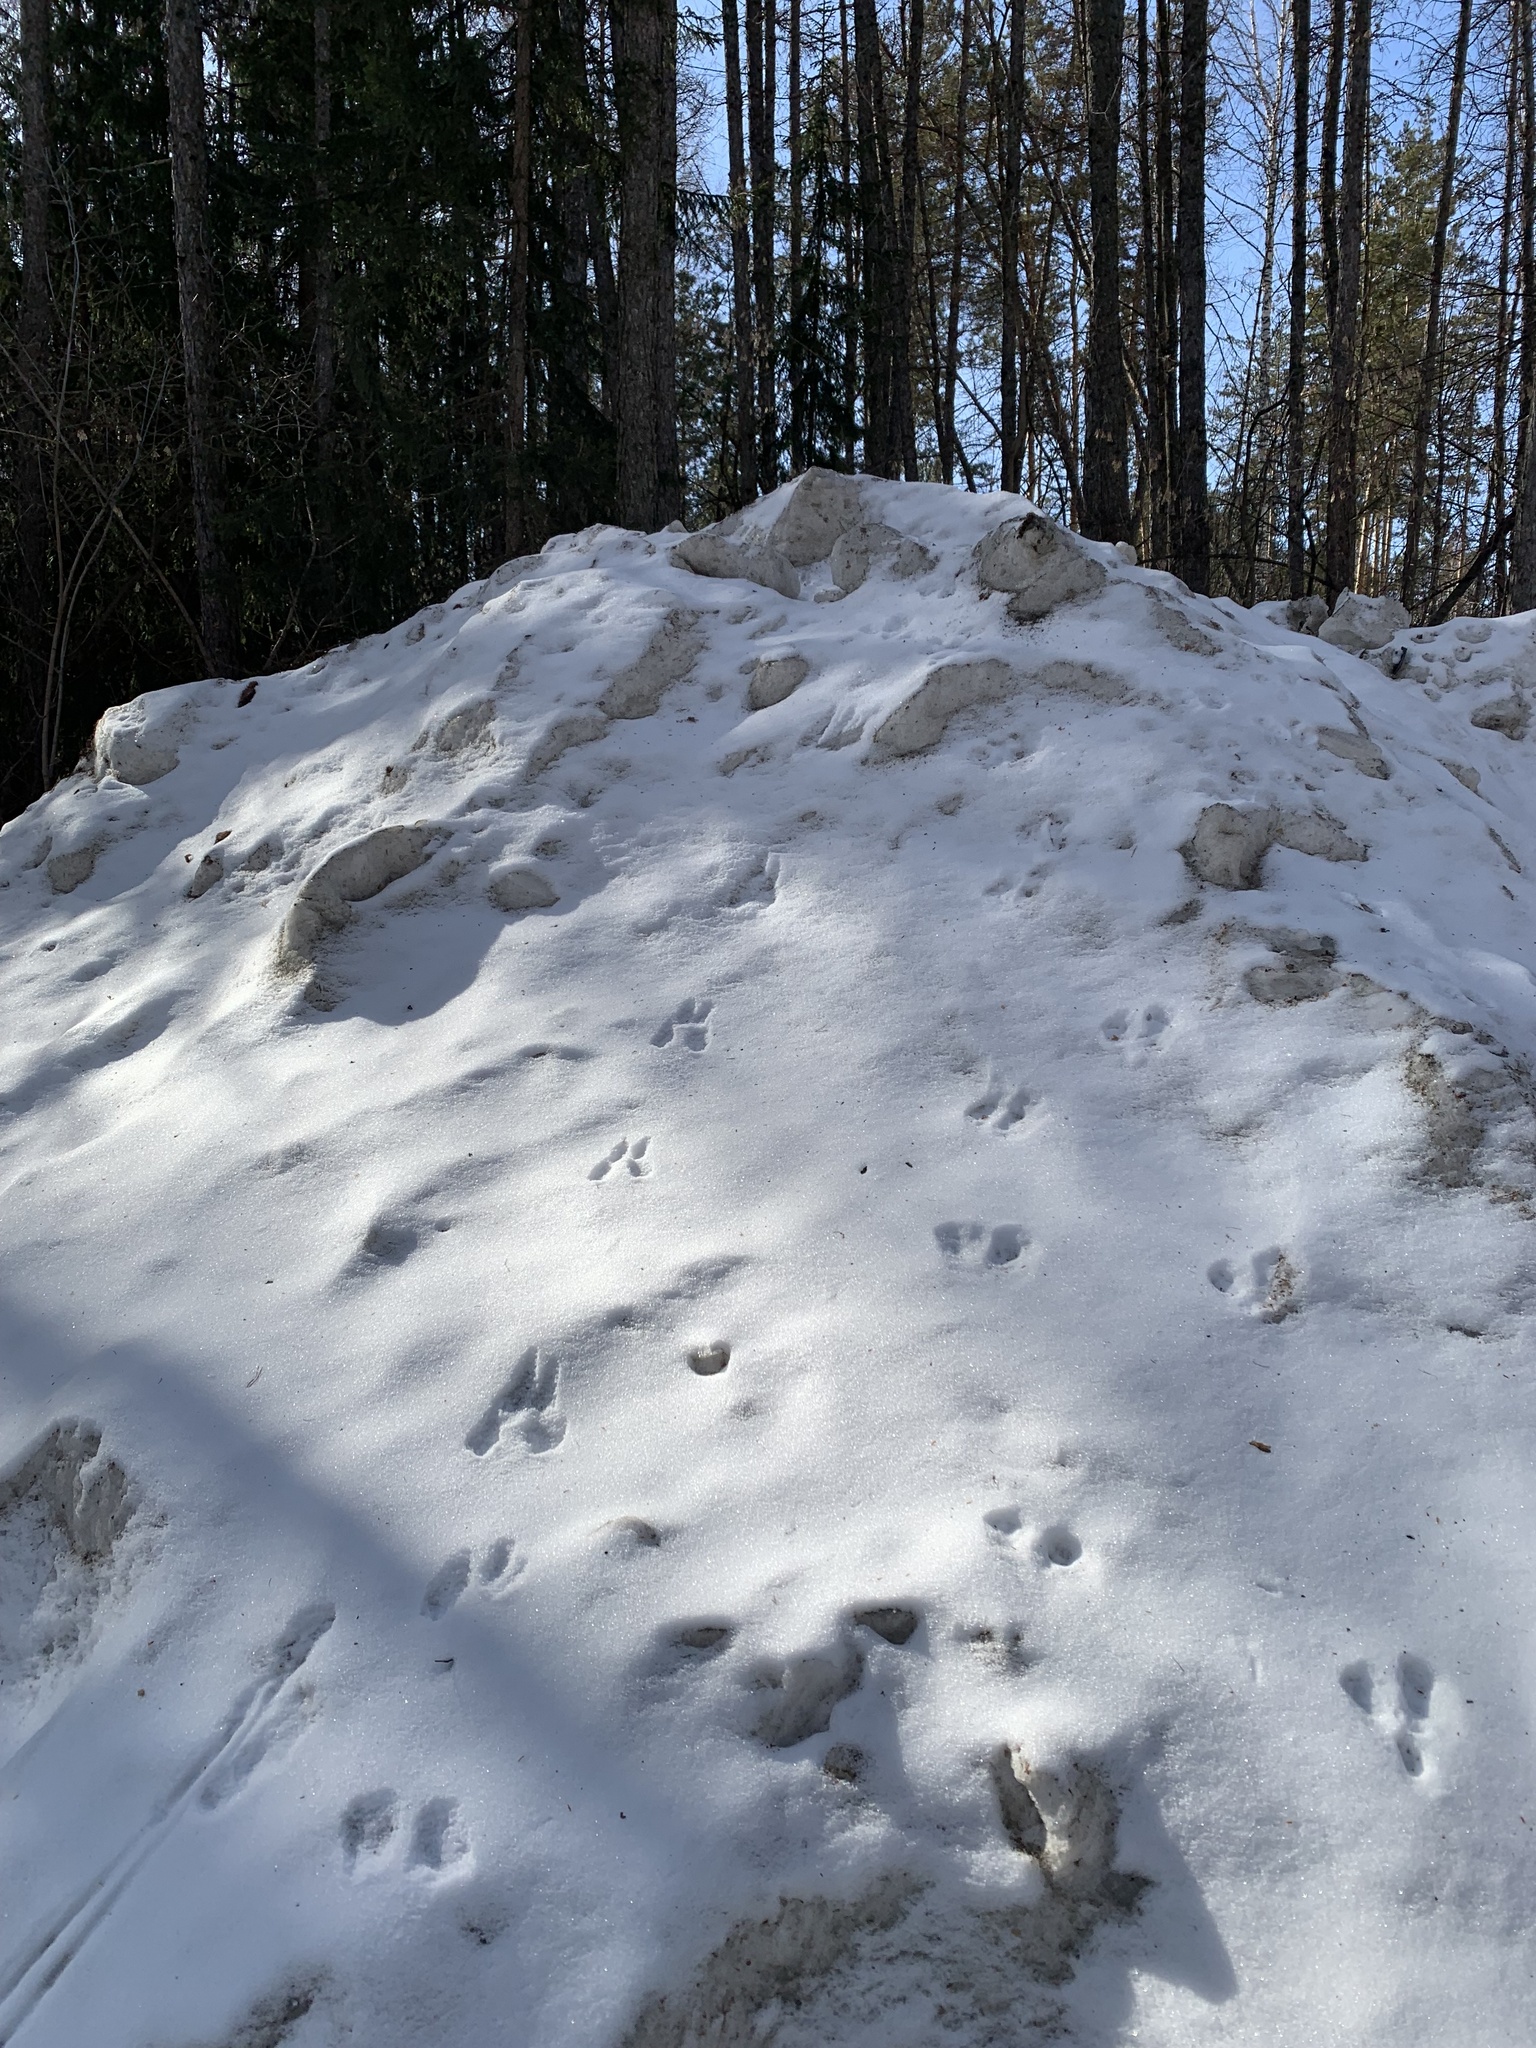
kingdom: Animalia
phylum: Chordata
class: Mammalia
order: Rodentia
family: Sciuridae
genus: Sciurus
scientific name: Sciurus vulgaris
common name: Eurasian red squirrel
